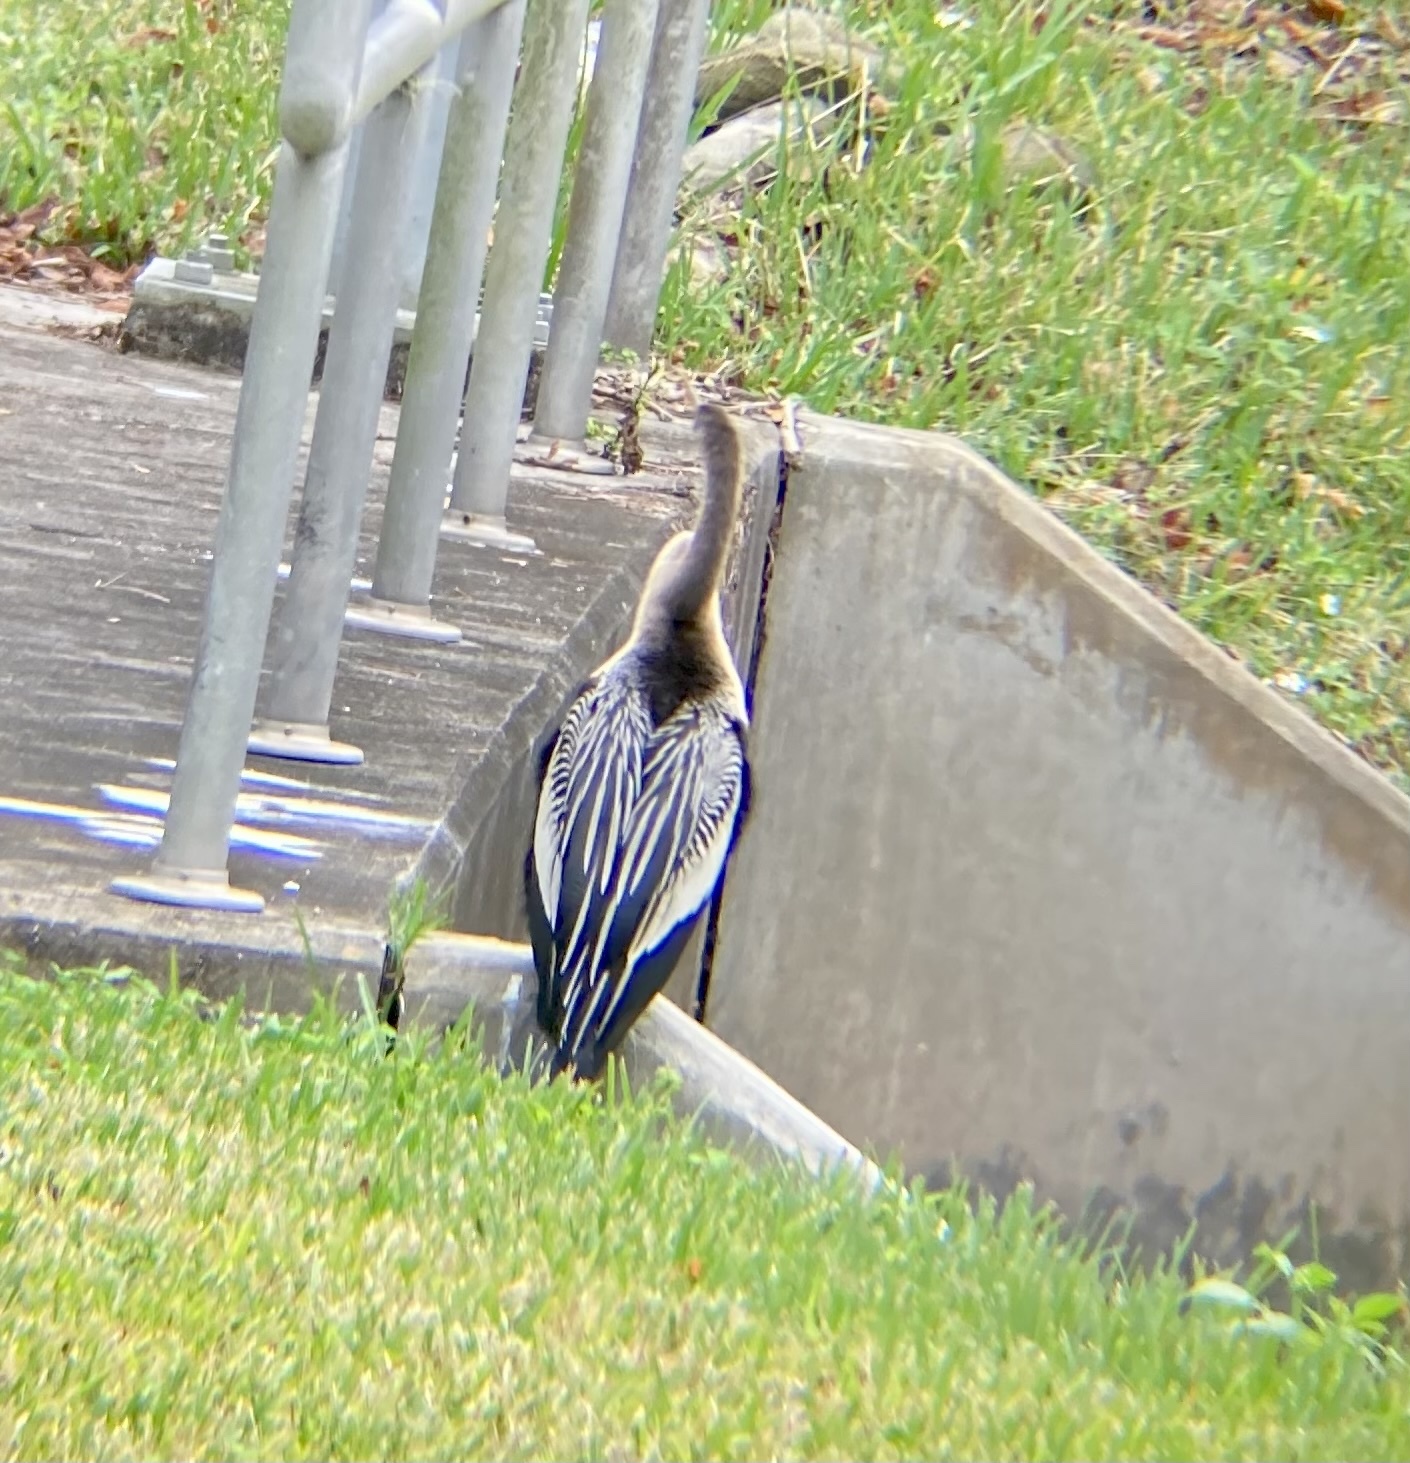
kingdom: Animalia
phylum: Chordata
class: Aves
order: Suliformes
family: Anhingidae
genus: Anhinga
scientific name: Anhinga anhinga
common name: Anhinga
